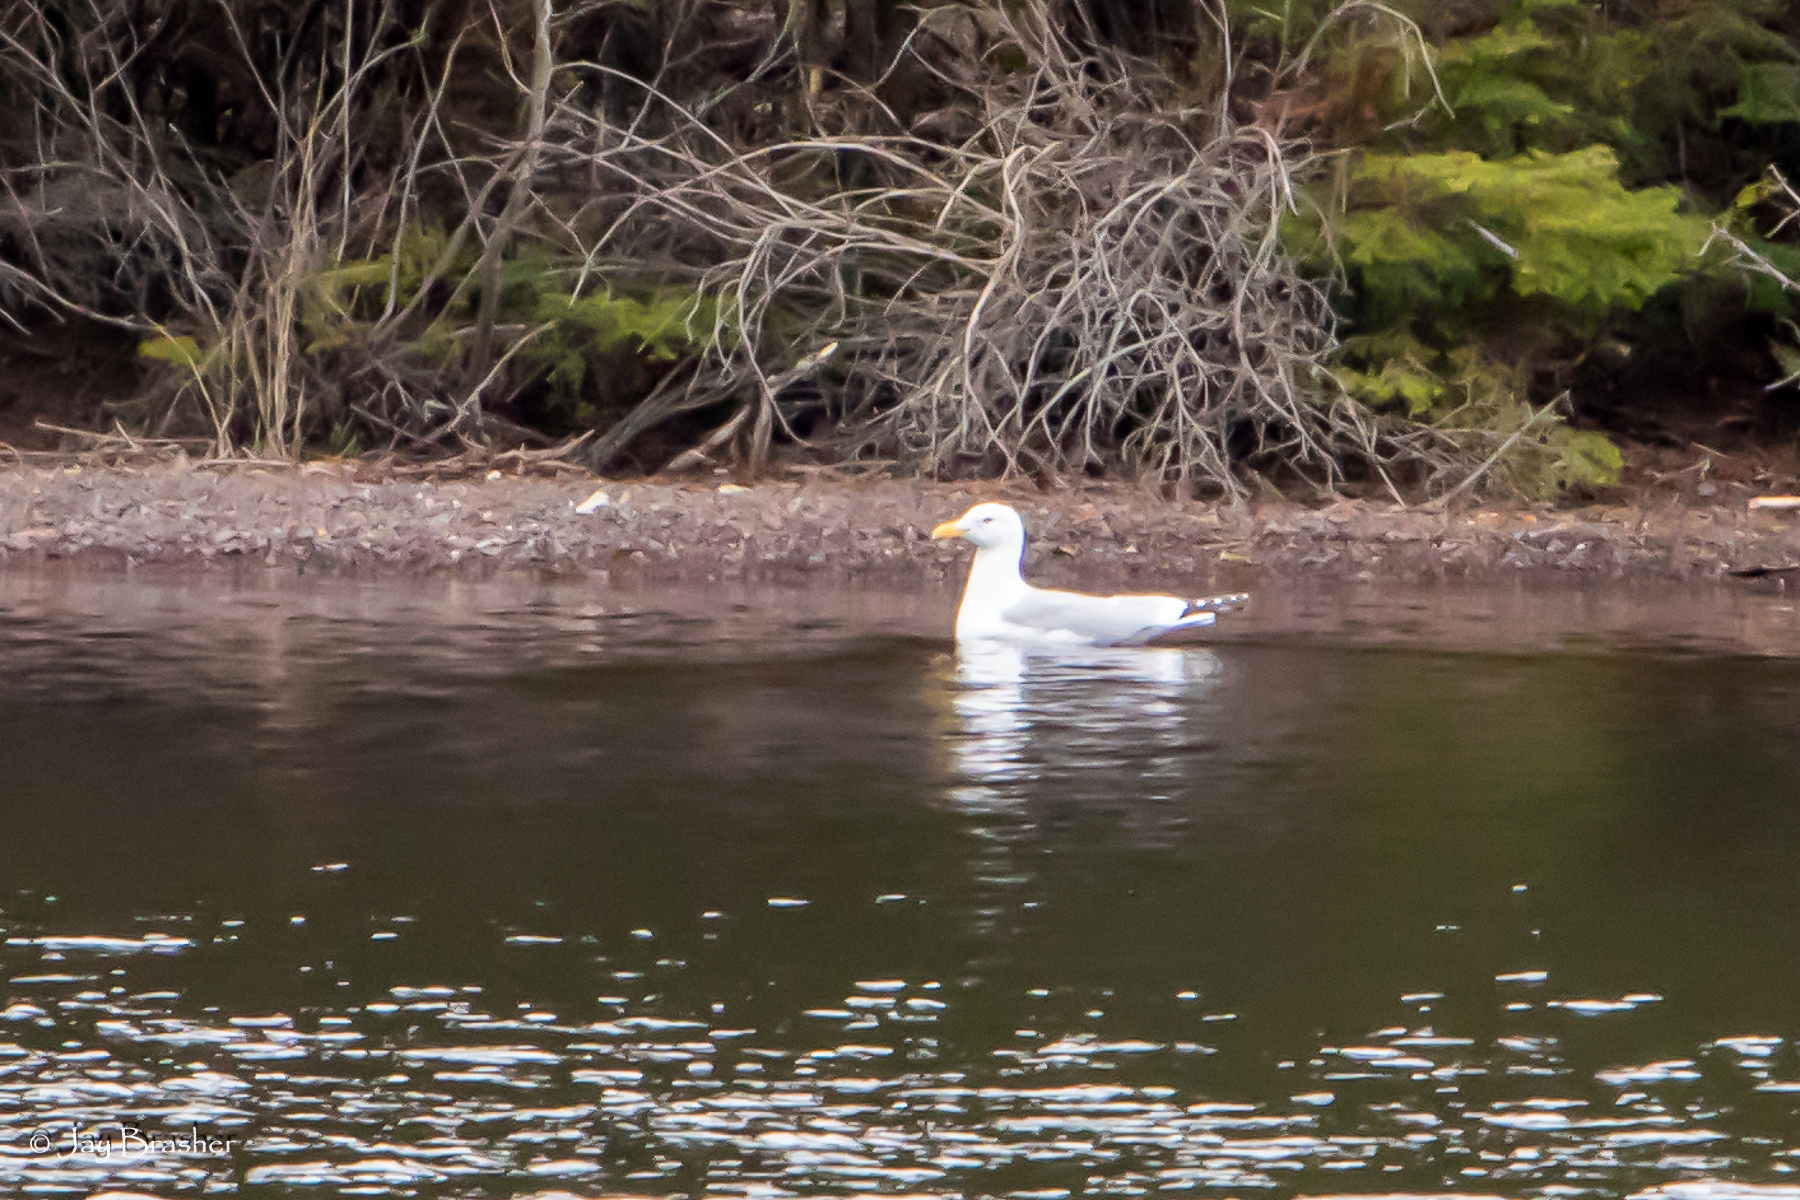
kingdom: Animalia
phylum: Chordata
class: Aves
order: Charadriiformes
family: Laridae
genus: Larus
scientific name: Larus argentatus
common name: Herring gull
